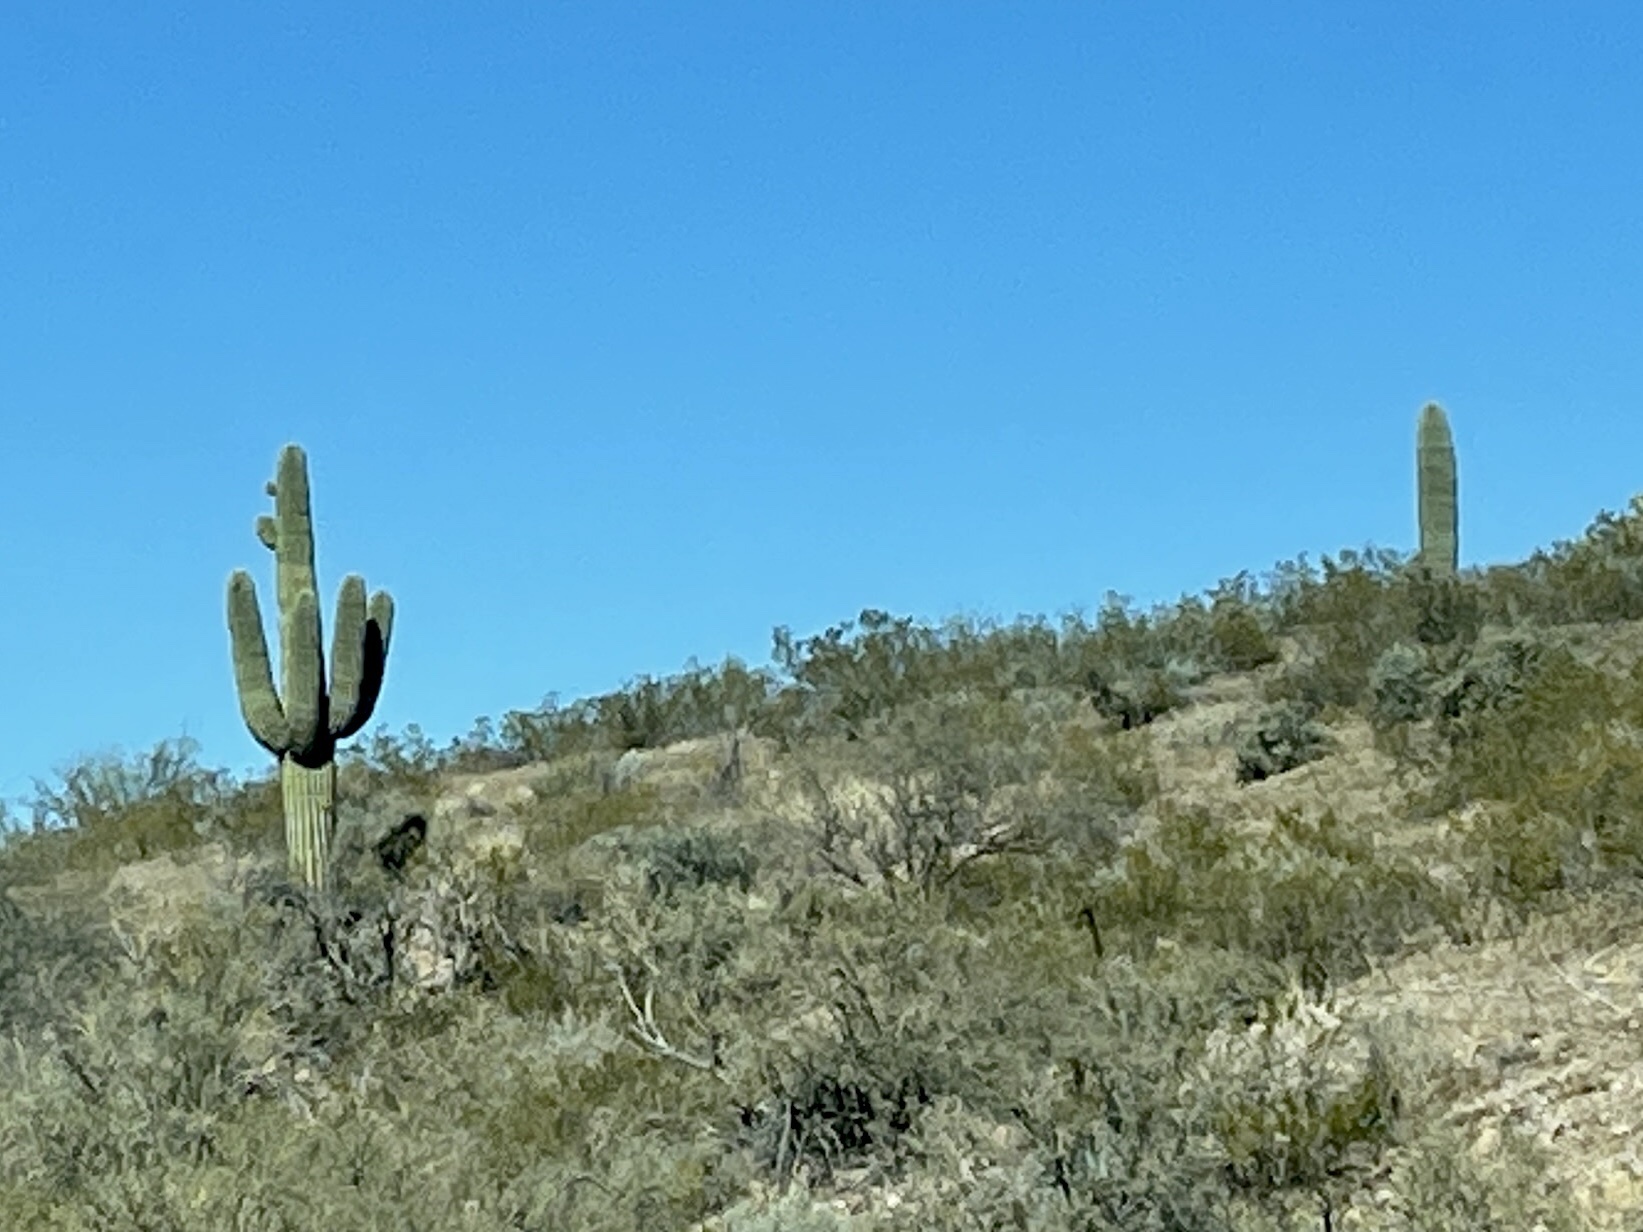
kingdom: Plantae
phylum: Tracheophyta
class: Magnoliopsida
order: Caryophyllales
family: Cactaceae
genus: Carnegiea
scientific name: Carnegiea gigantea
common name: Saguaro
